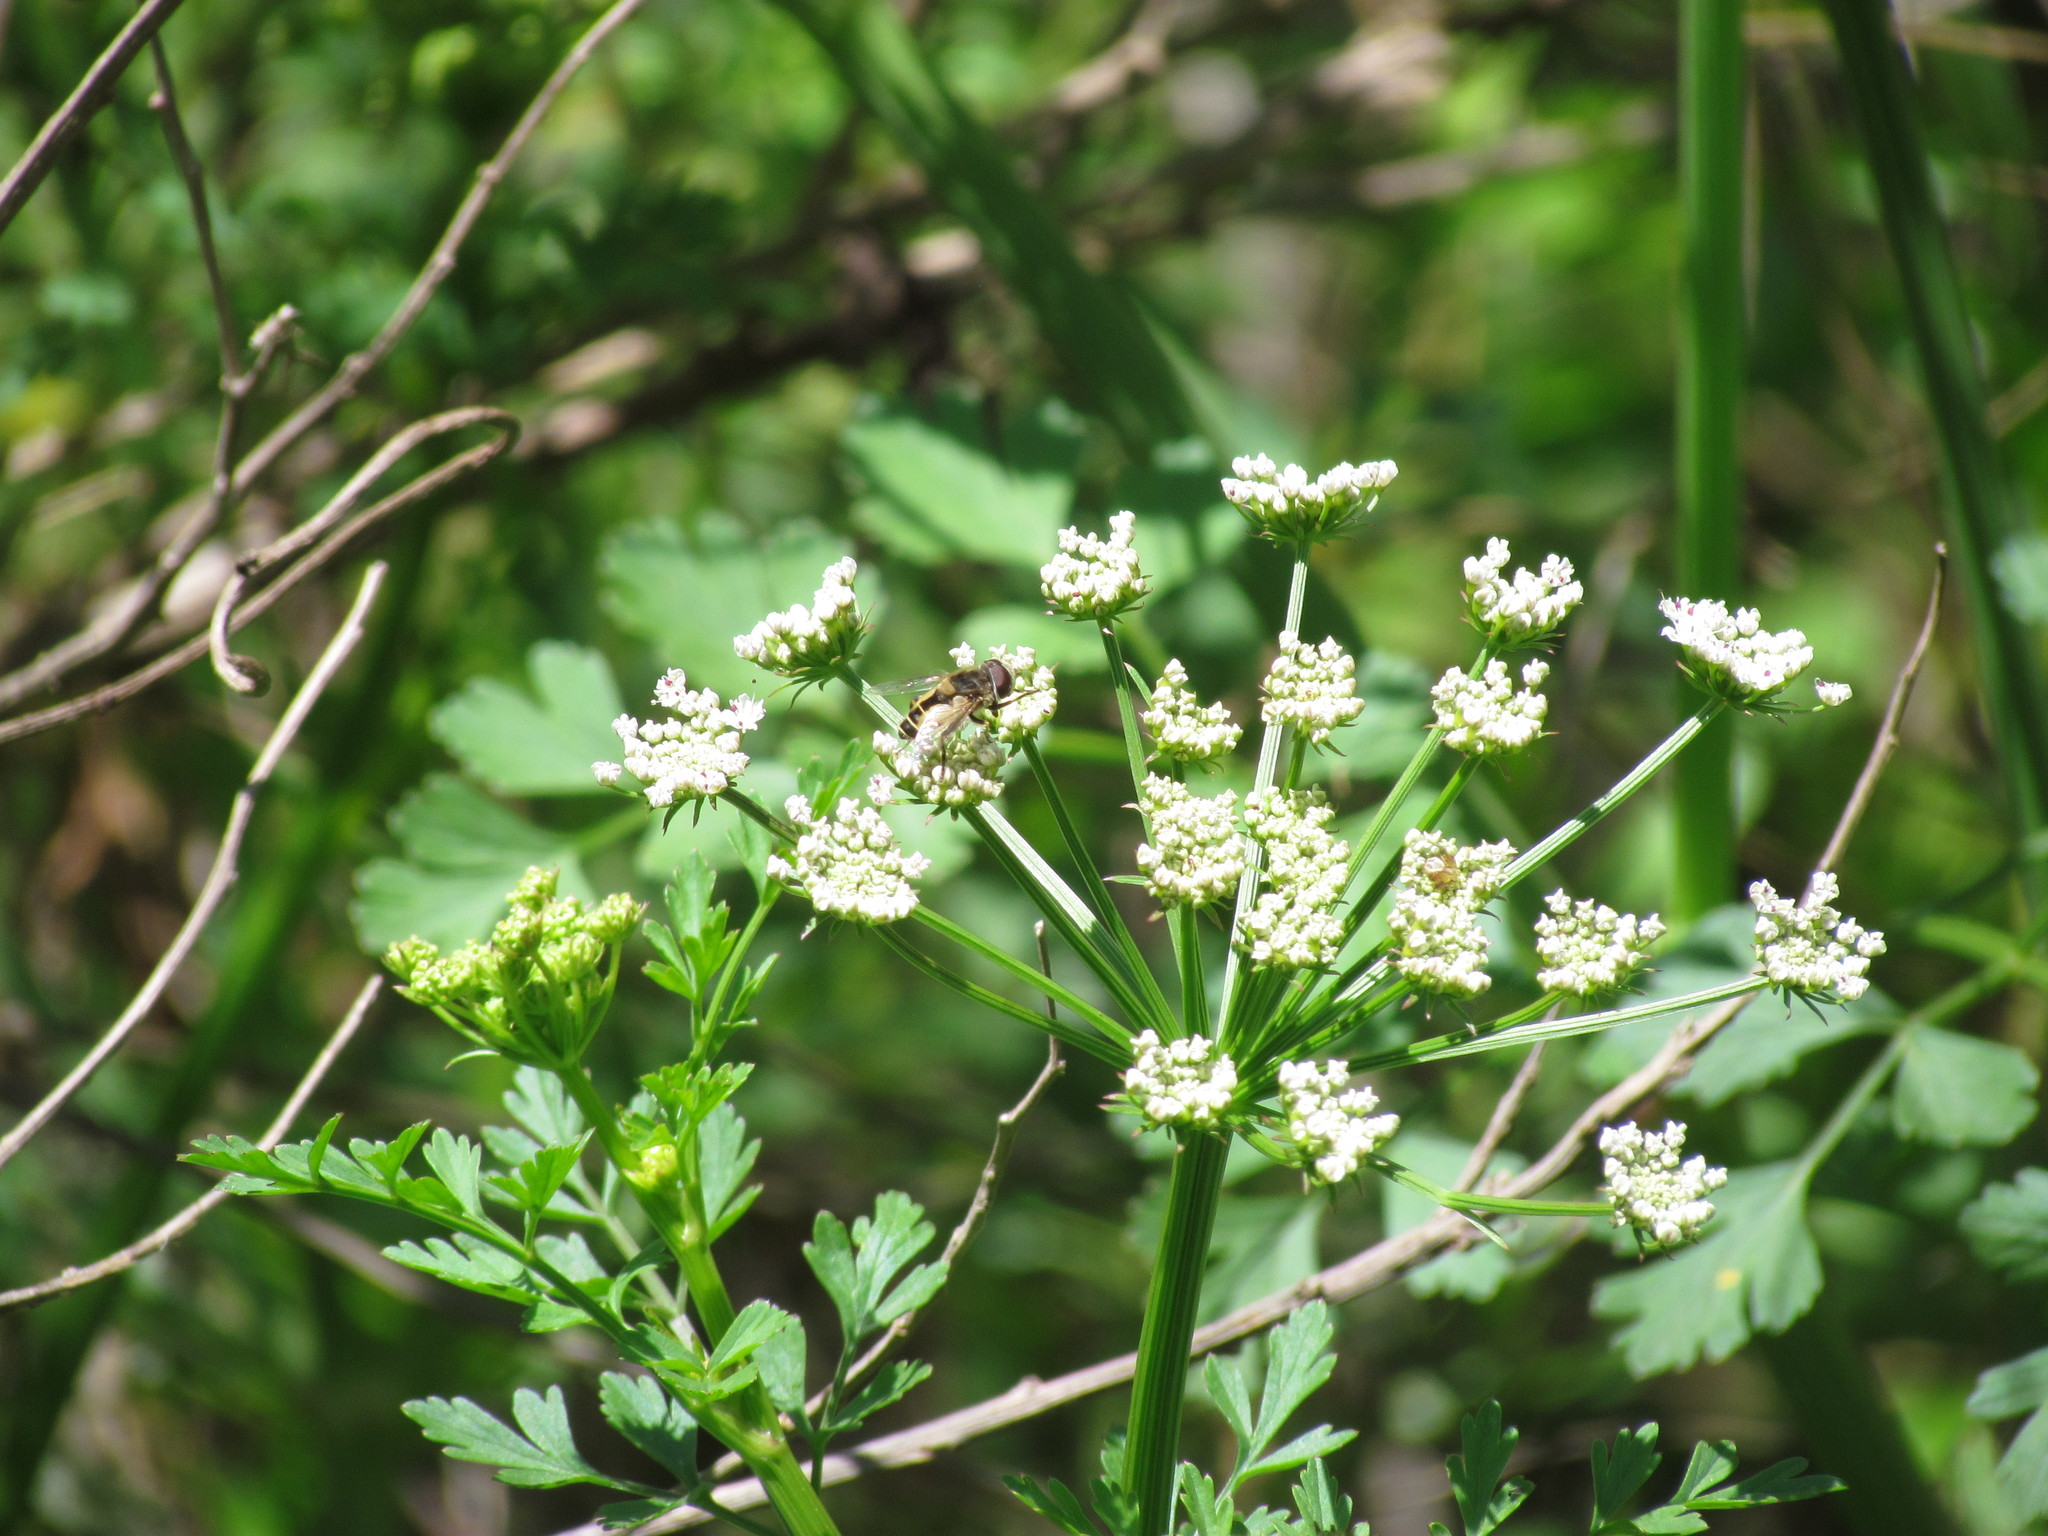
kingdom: Animalia
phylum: Arthropoda
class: Insecta
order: Diptera
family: Syrphidae
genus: Palpada
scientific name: Palpada
